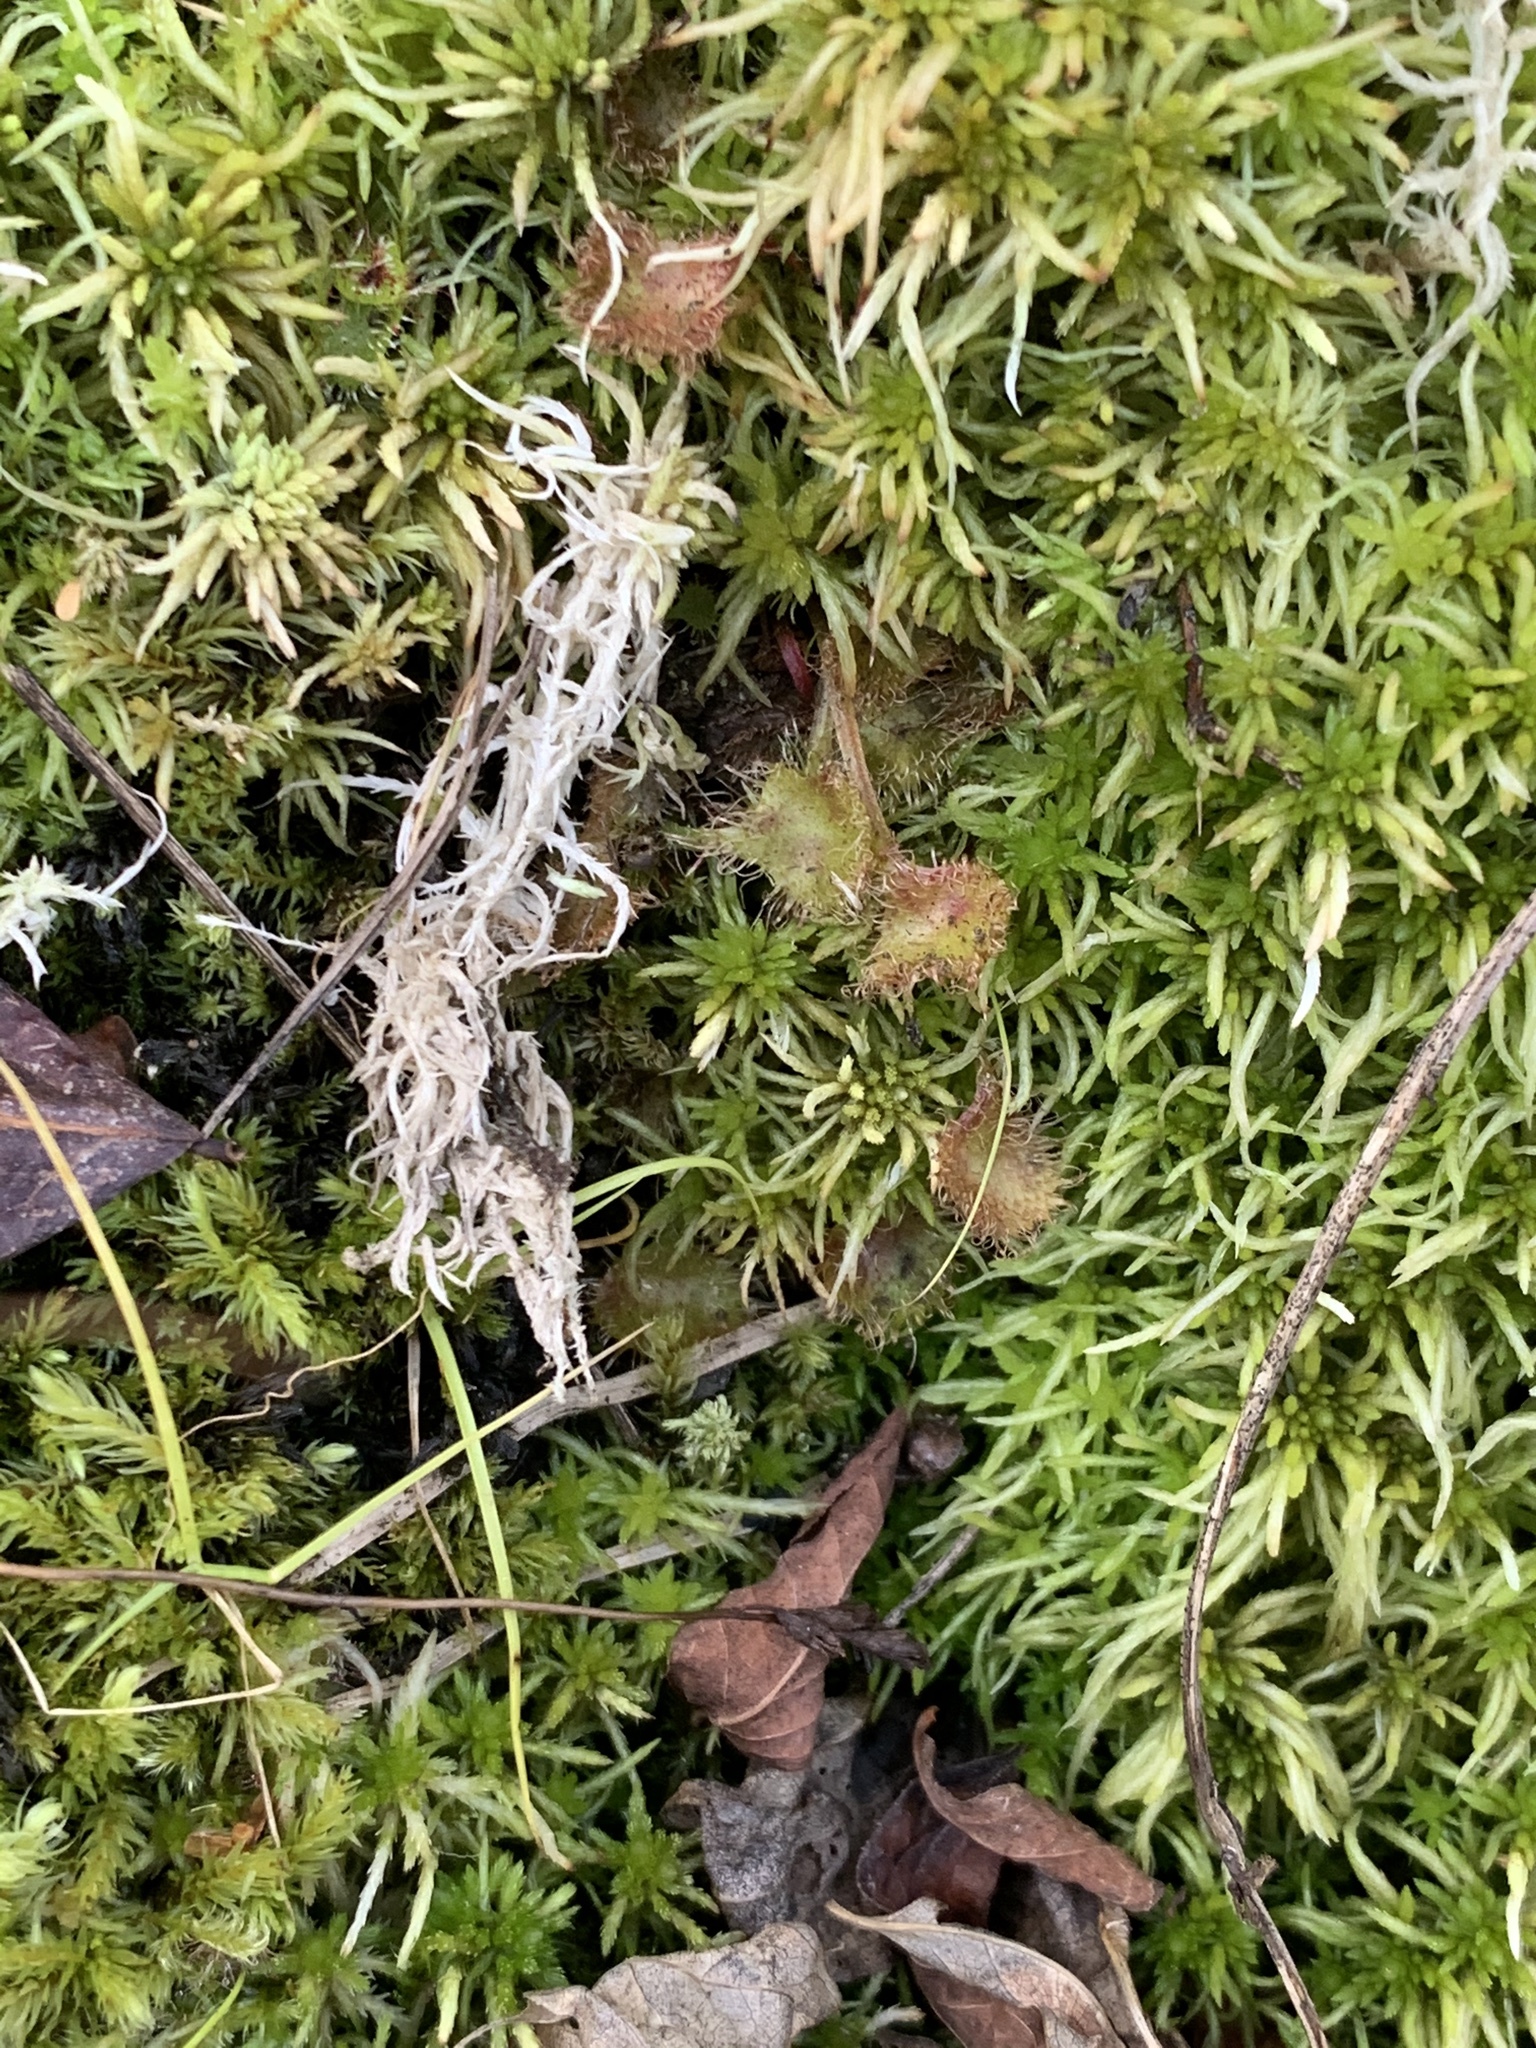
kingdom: Plantae
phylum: Tracheophyta
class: Magnoliopsida
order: Caryophyllales
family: Droseraceae
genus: Drosera
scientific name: Drosera rotundifolia
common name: Round-leaved sundew
